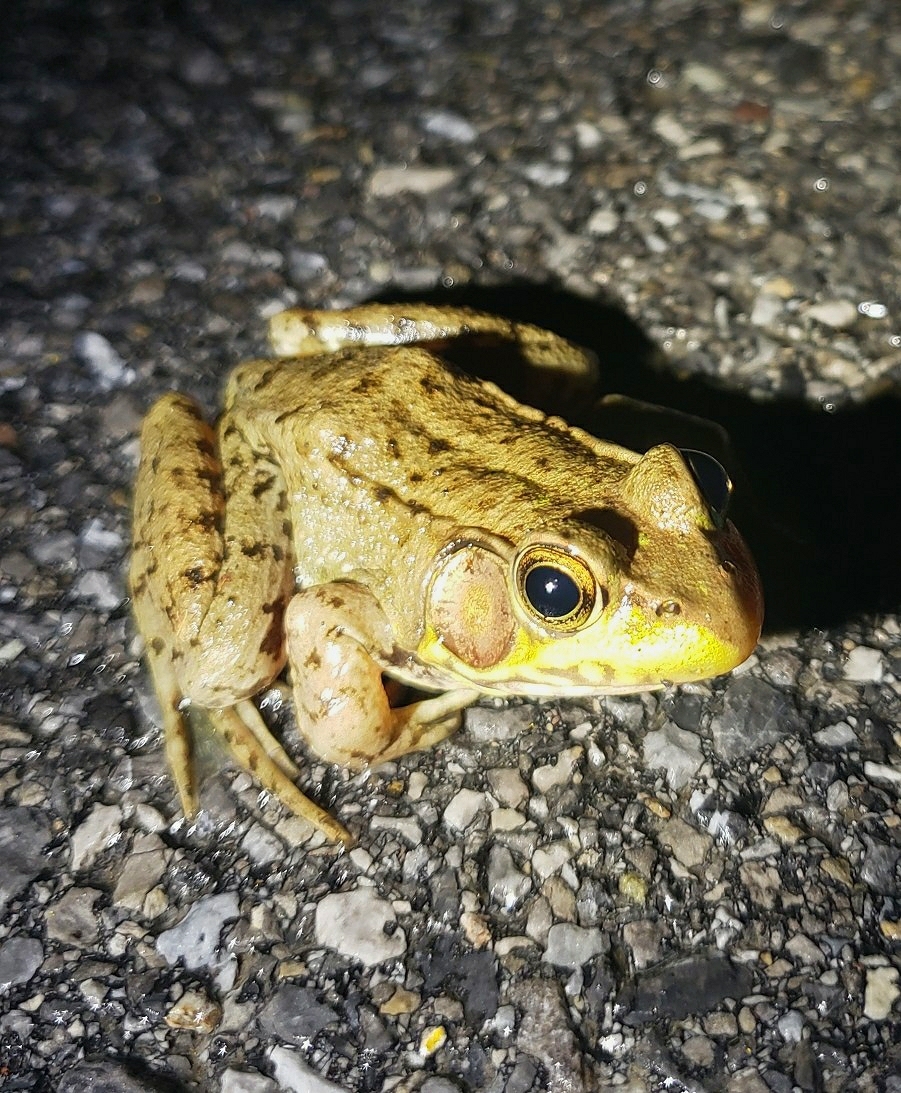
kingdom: Animalia
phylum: Chordata
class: Amphibia
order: Anura
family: Ranidae
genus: Lithobates
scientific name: Lithobates clamitans
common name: Green frog
